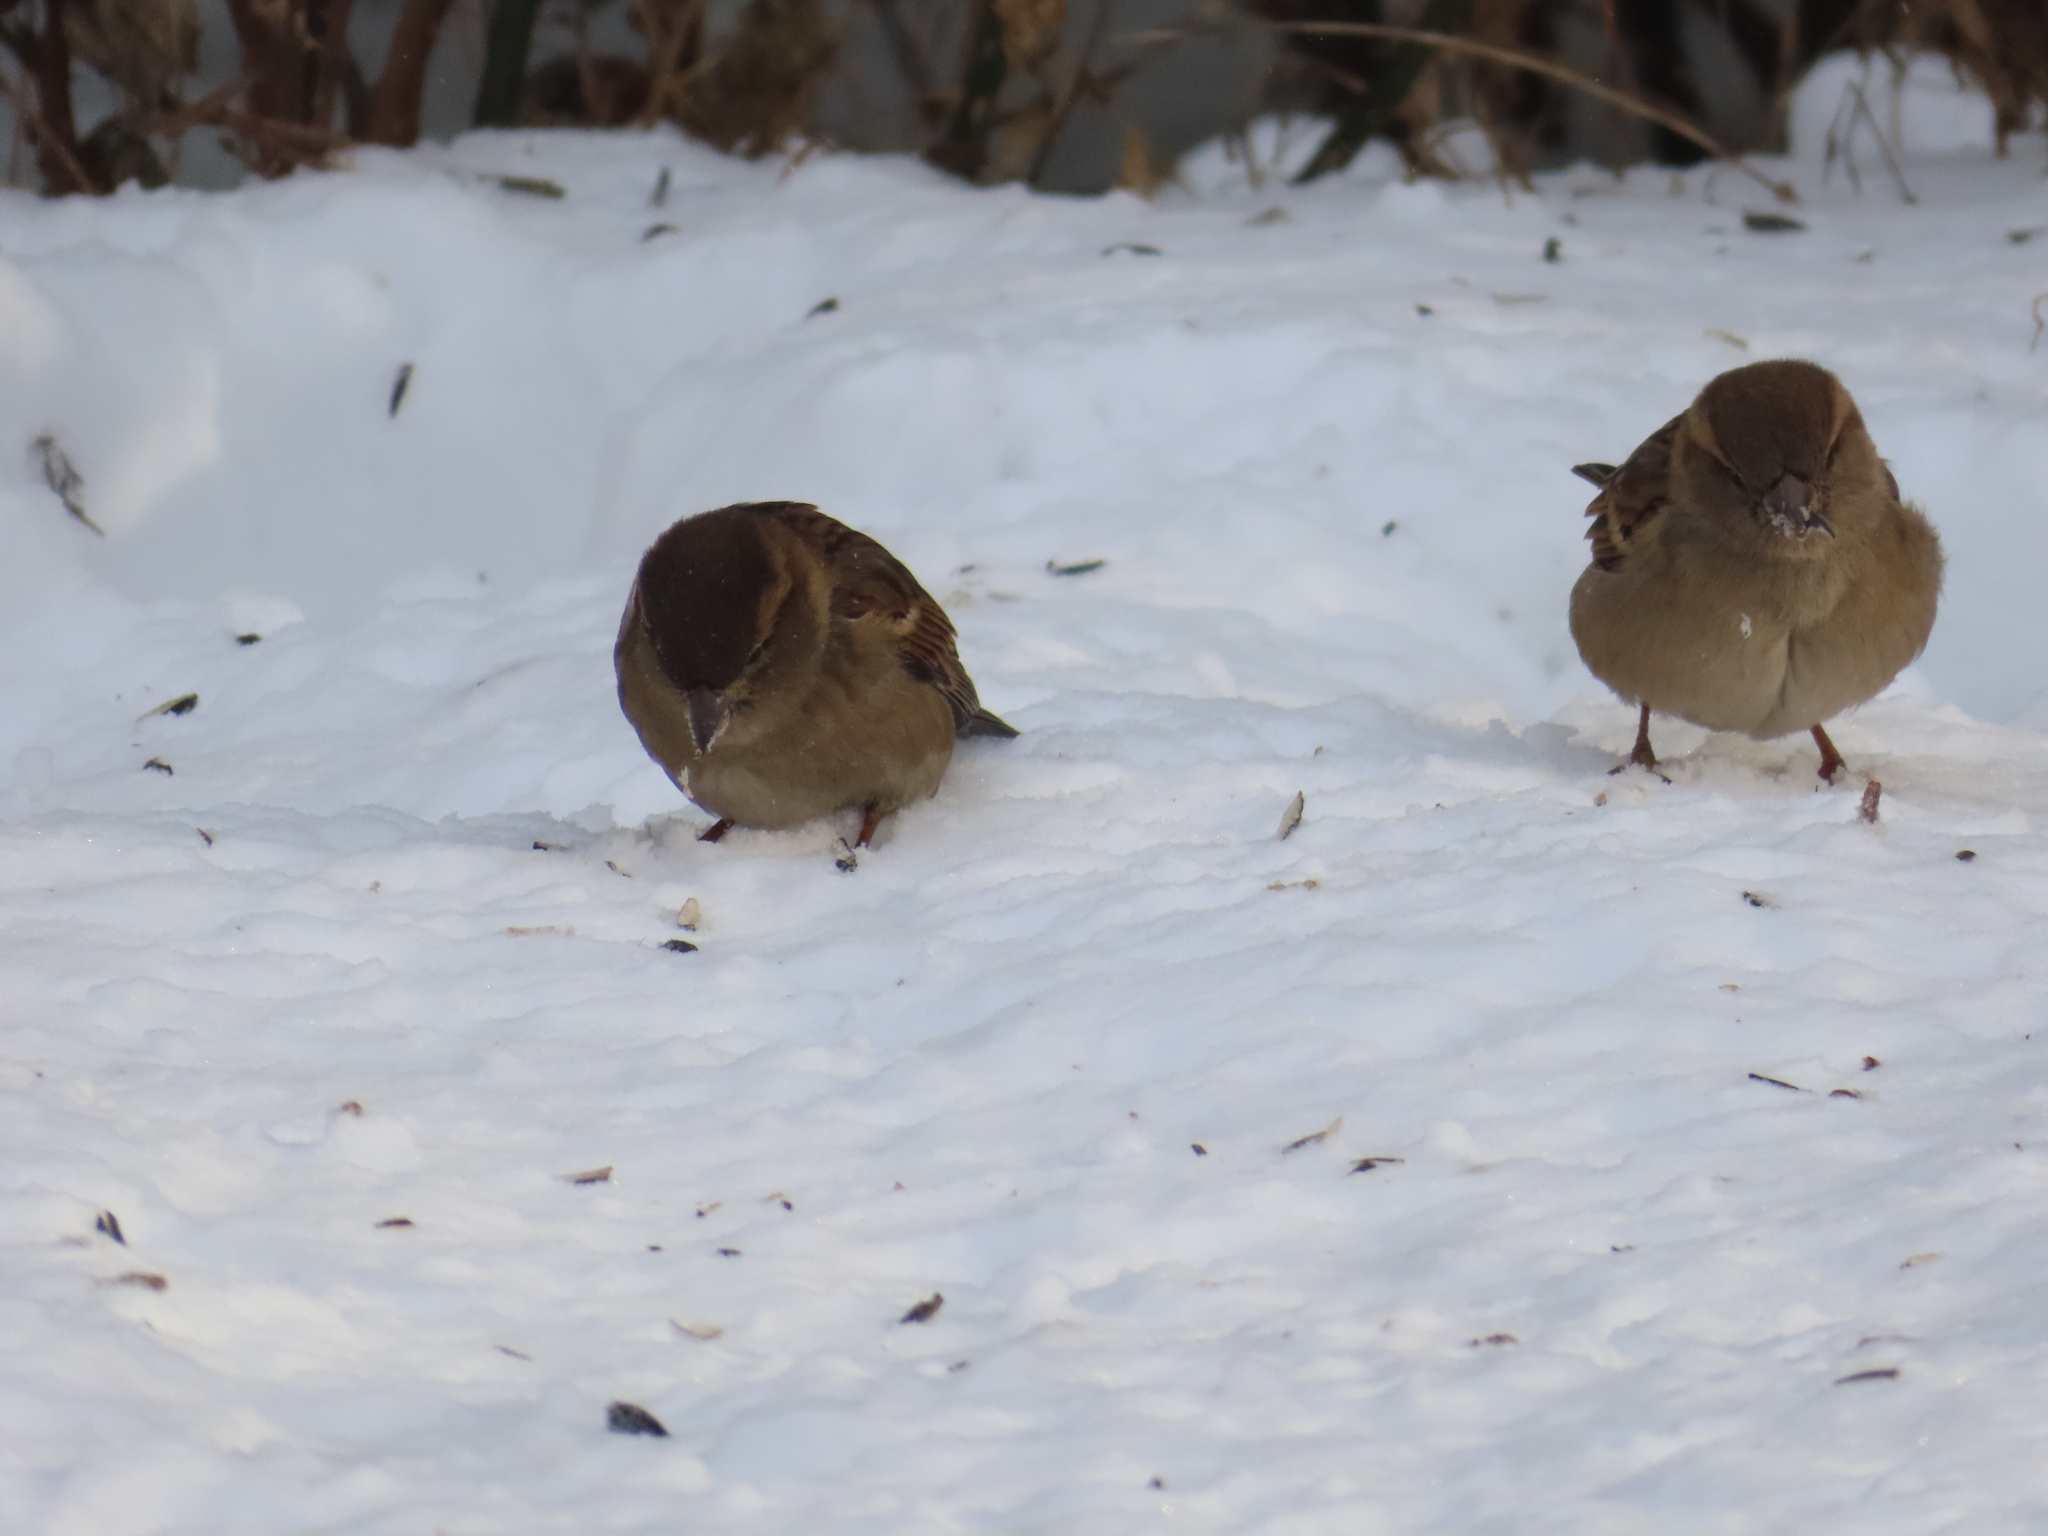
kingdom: Animalia
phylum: Chordata
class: Aves
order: Passeriformes
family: Passeridae
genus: Passer
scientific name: Passer domesticus
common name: House sparrow
